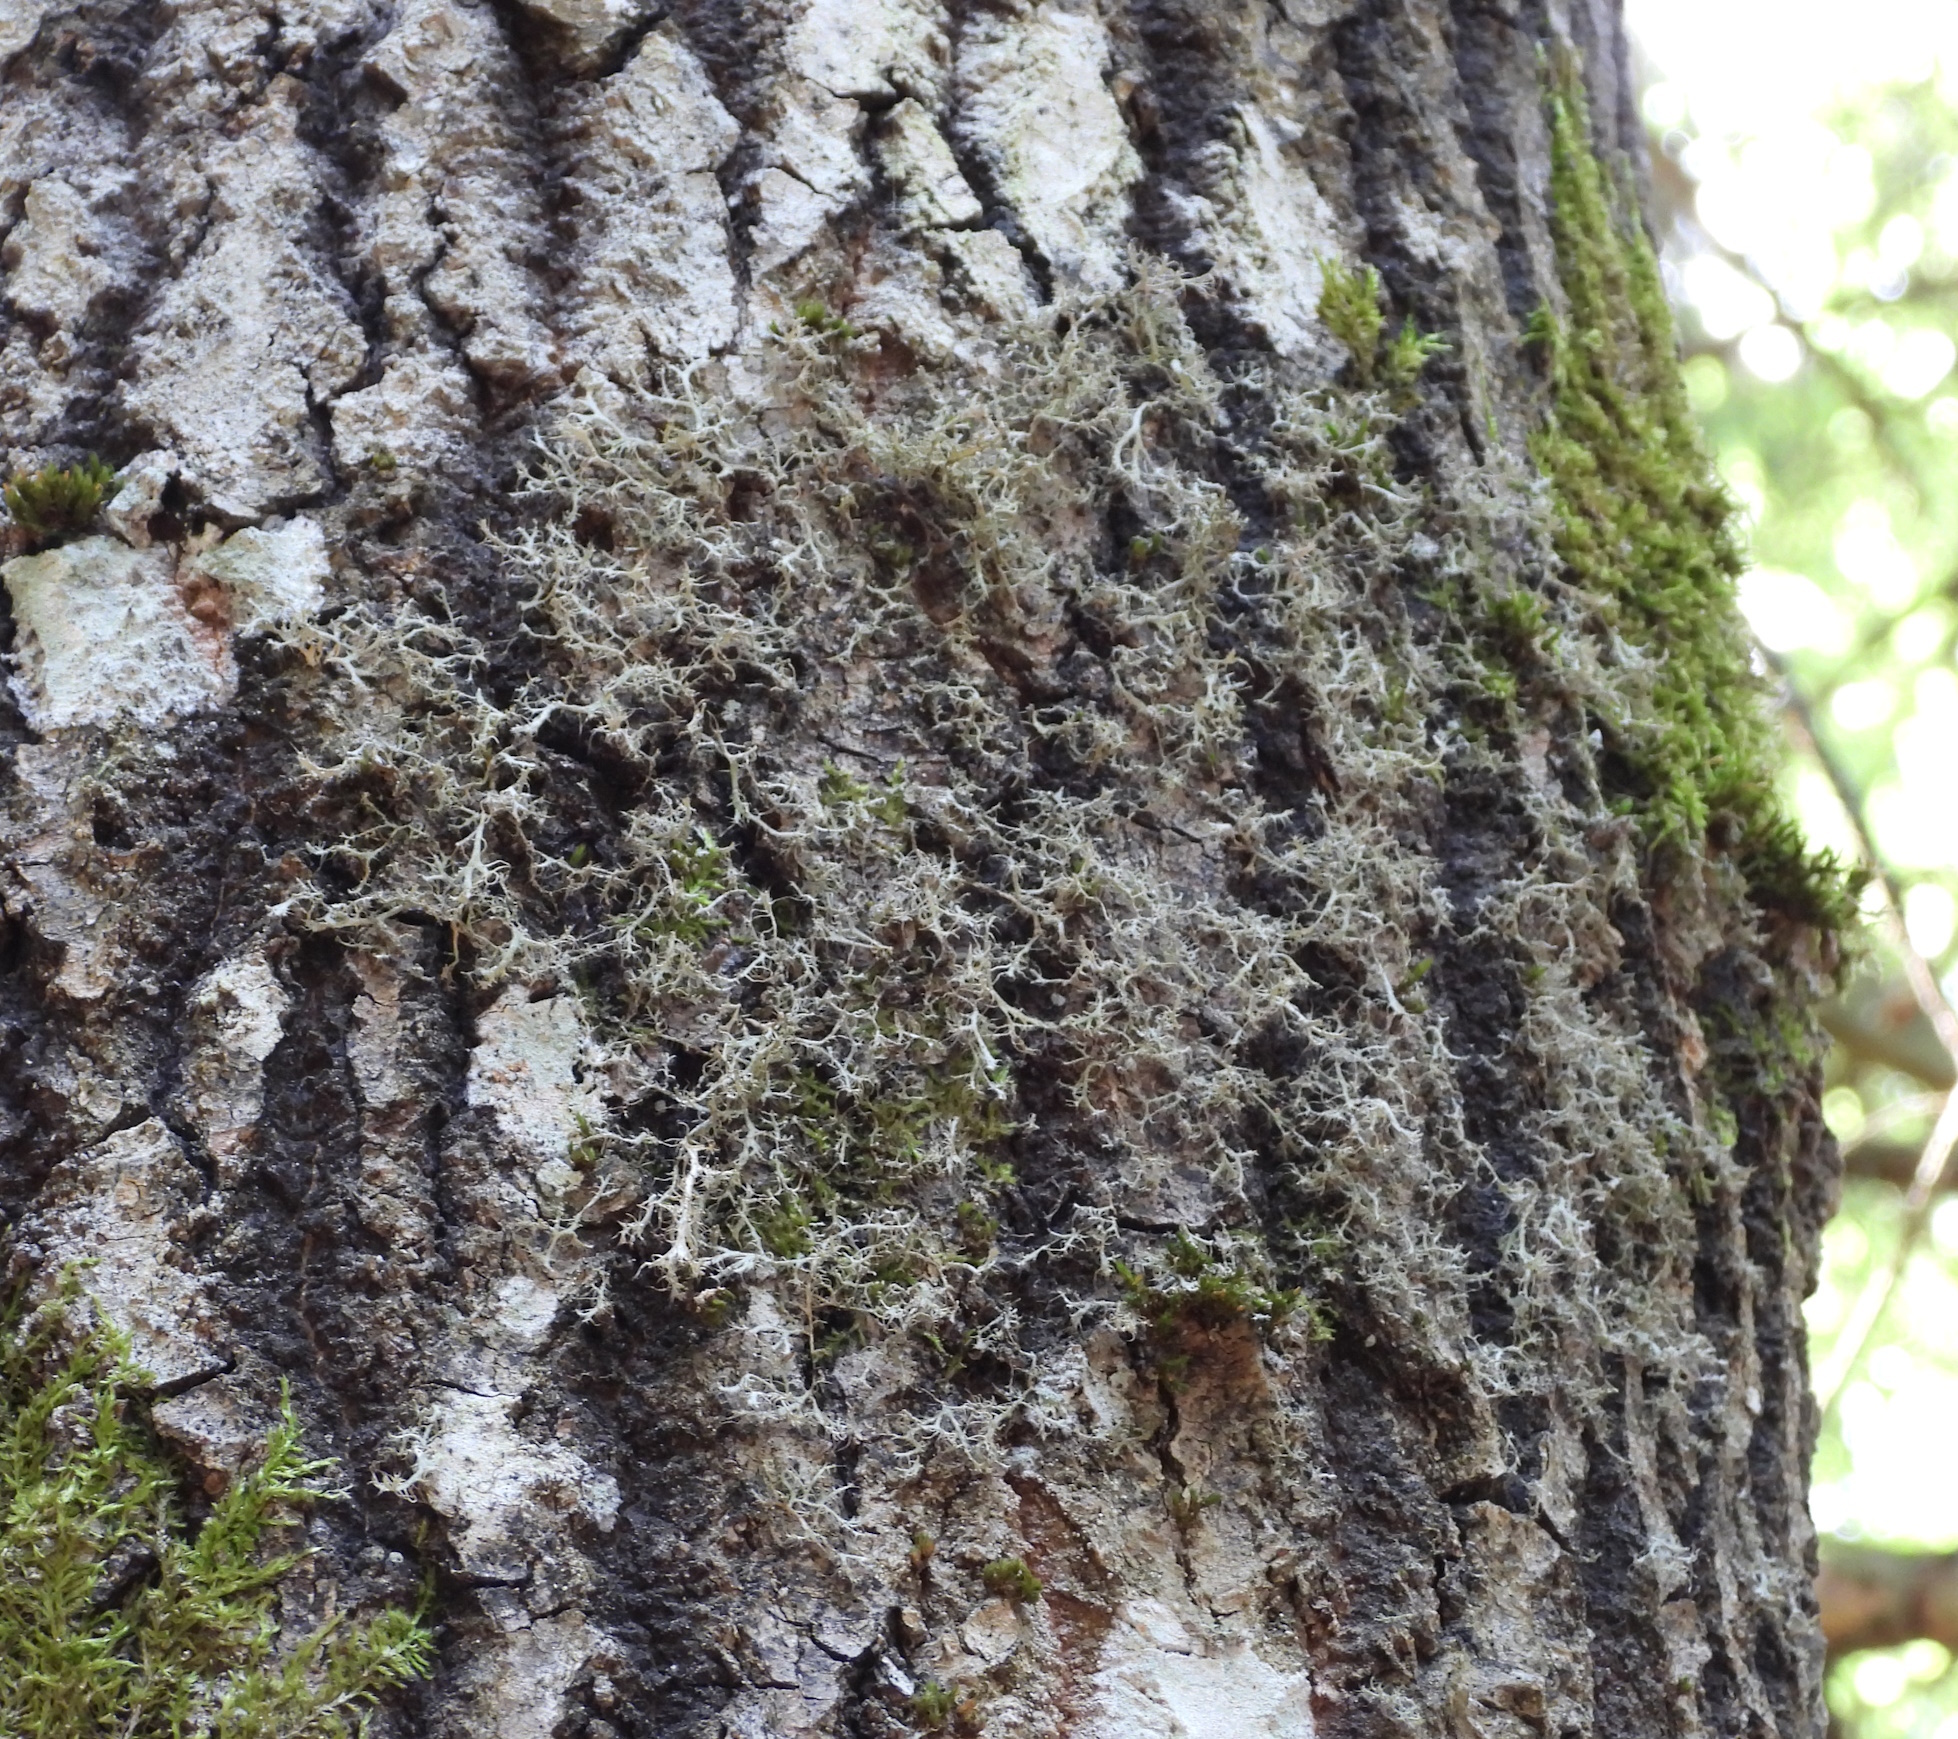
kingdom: Fungi
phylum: Ascomycota
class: Lecanoromycetes
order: Caliciales
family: Physciaceae
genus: Anaptychia
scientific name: Anaptychia ciliaris
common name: Great ciliated lichen
